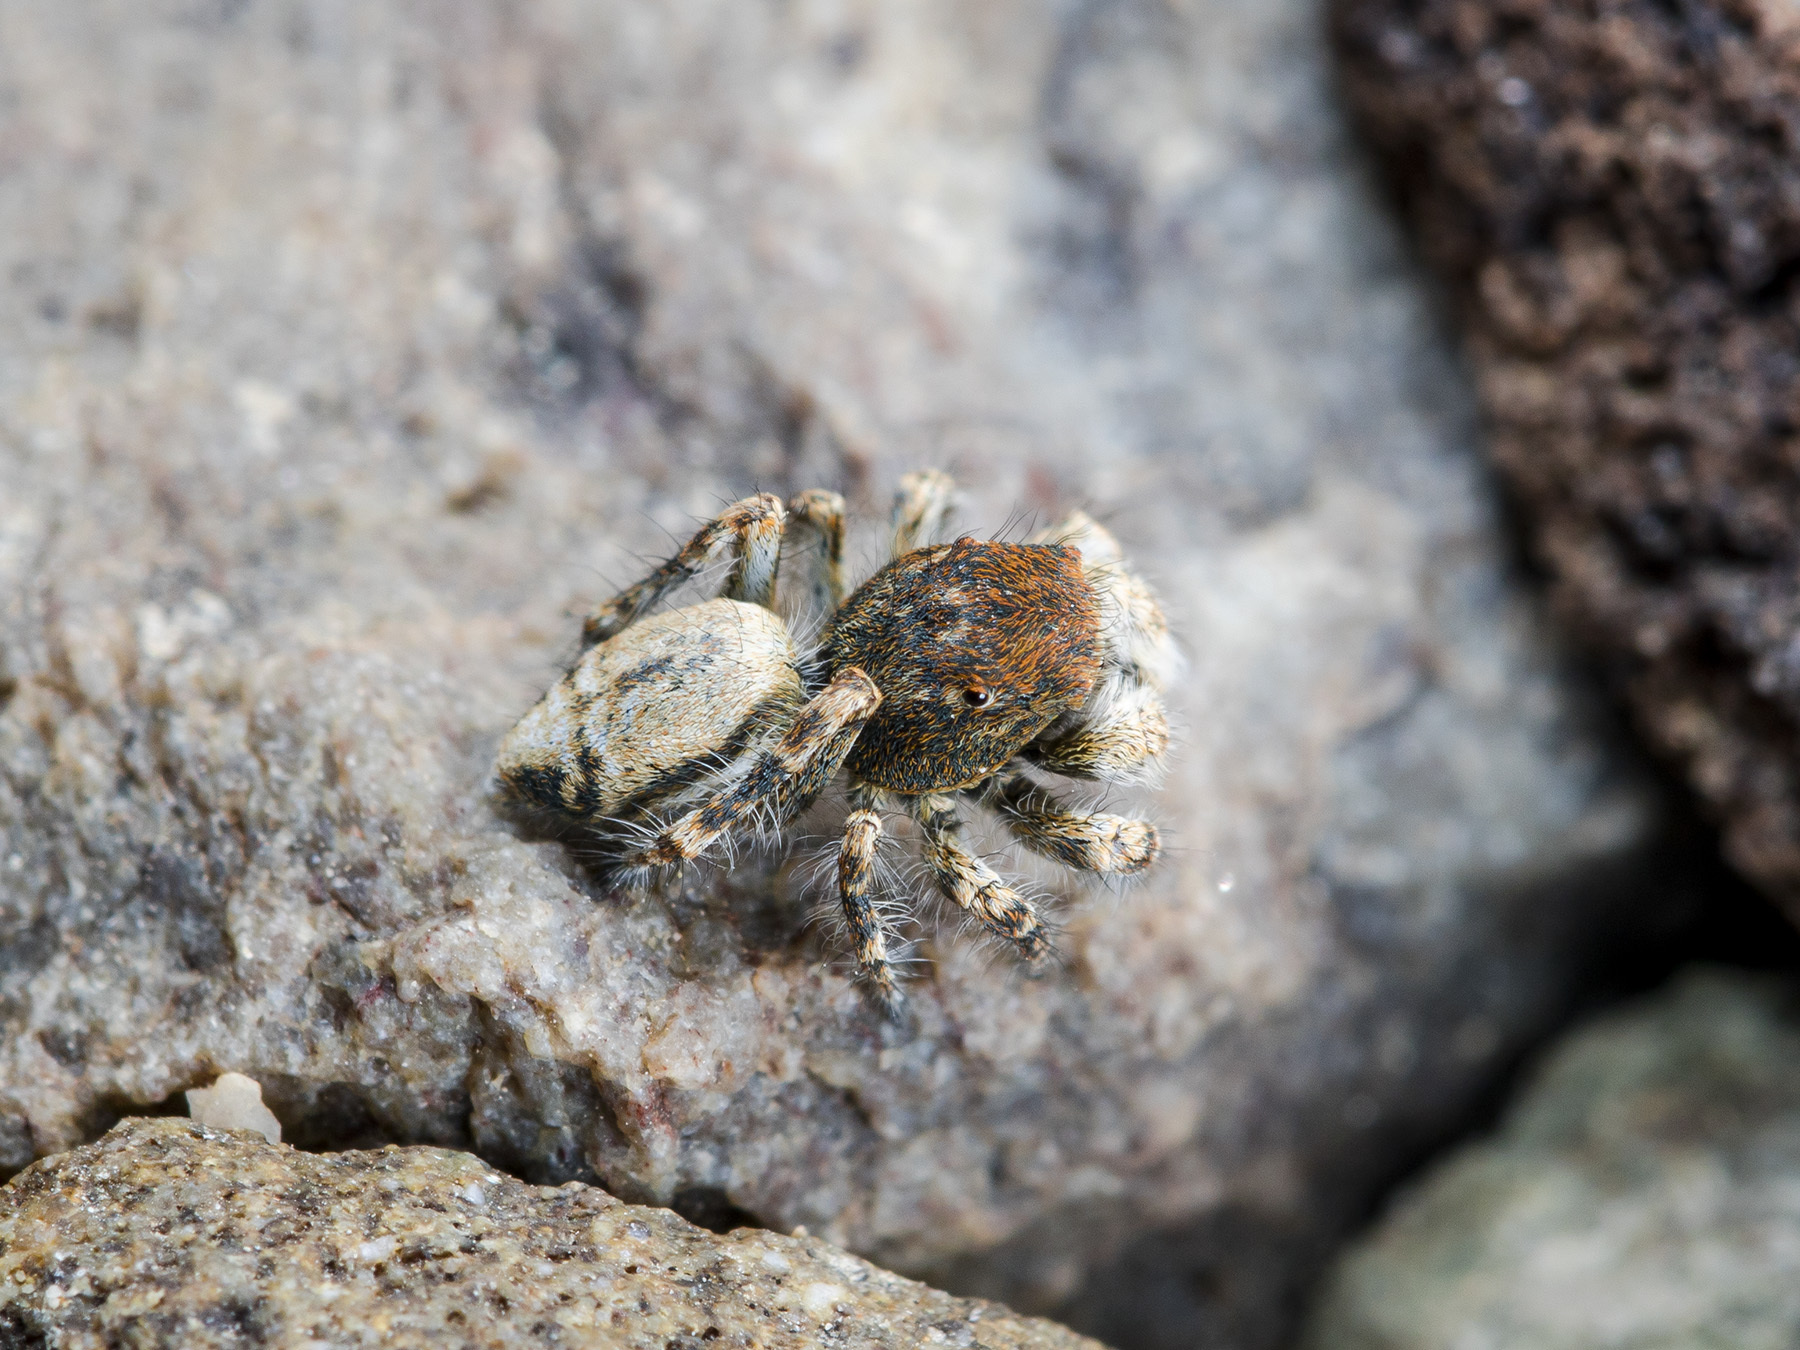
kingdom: Animalia
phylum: Arthropoda
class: Arachnida
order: Araneae
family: Salticidae
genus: Yllenus
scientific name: Yllenus zyuzini
